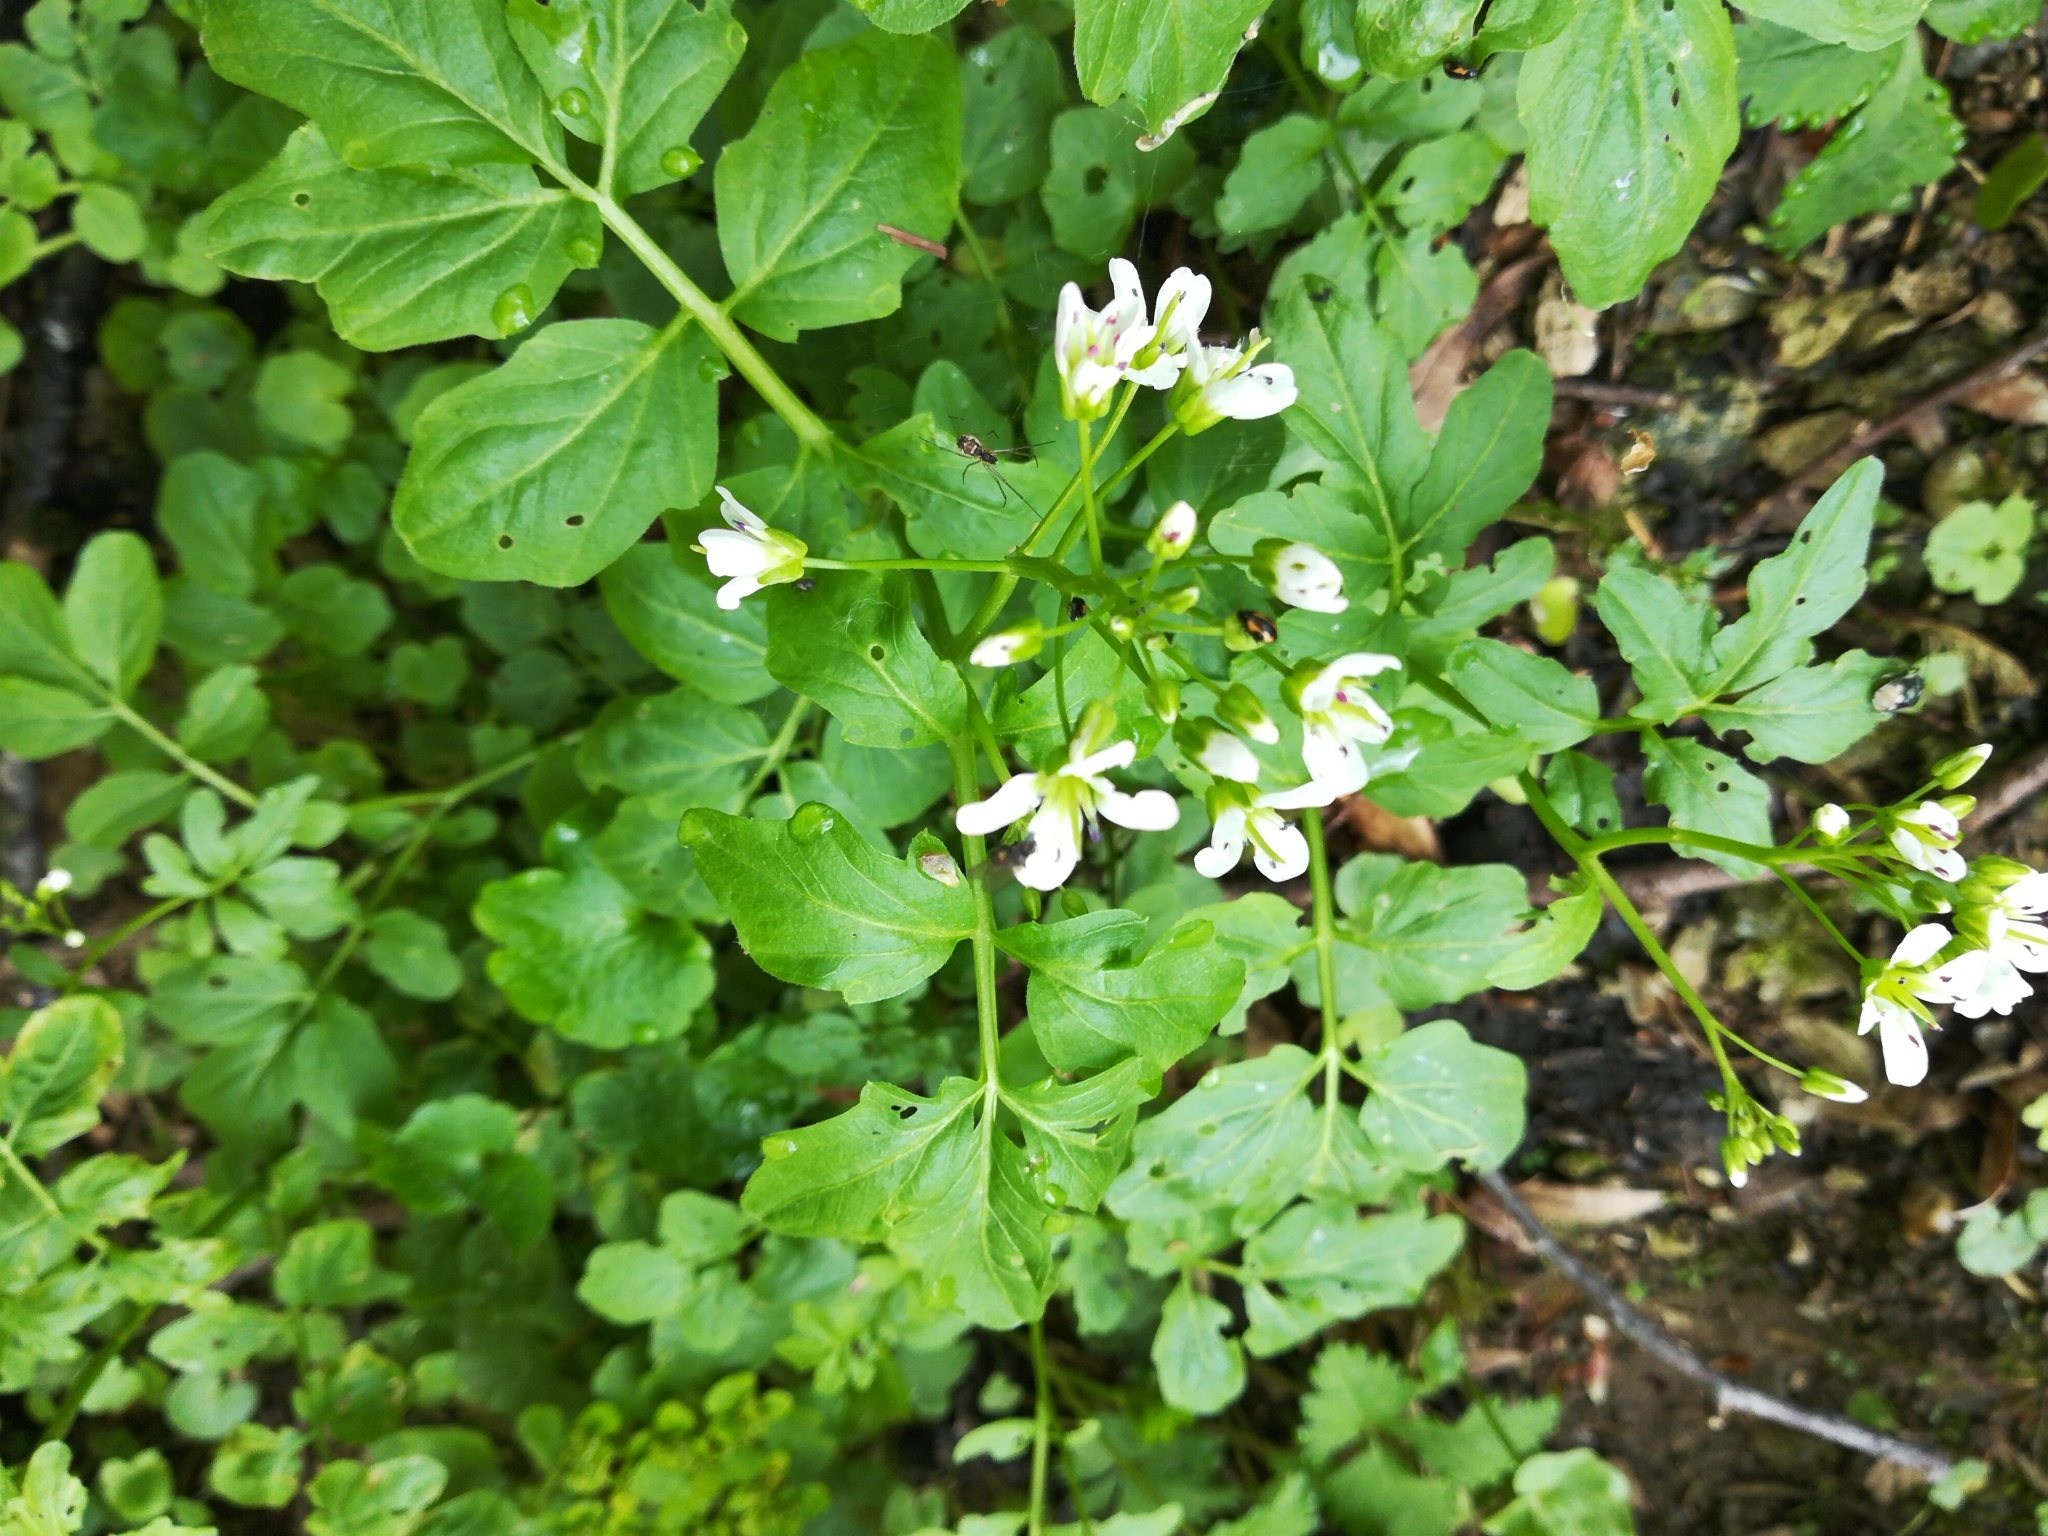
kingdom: Plantae
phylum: Tracheophyta
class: Magnoliopsida
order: Brassicales
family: Brassicaceae
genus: Cardamine
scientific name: Cardamine amara
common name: Large bitter-cress
